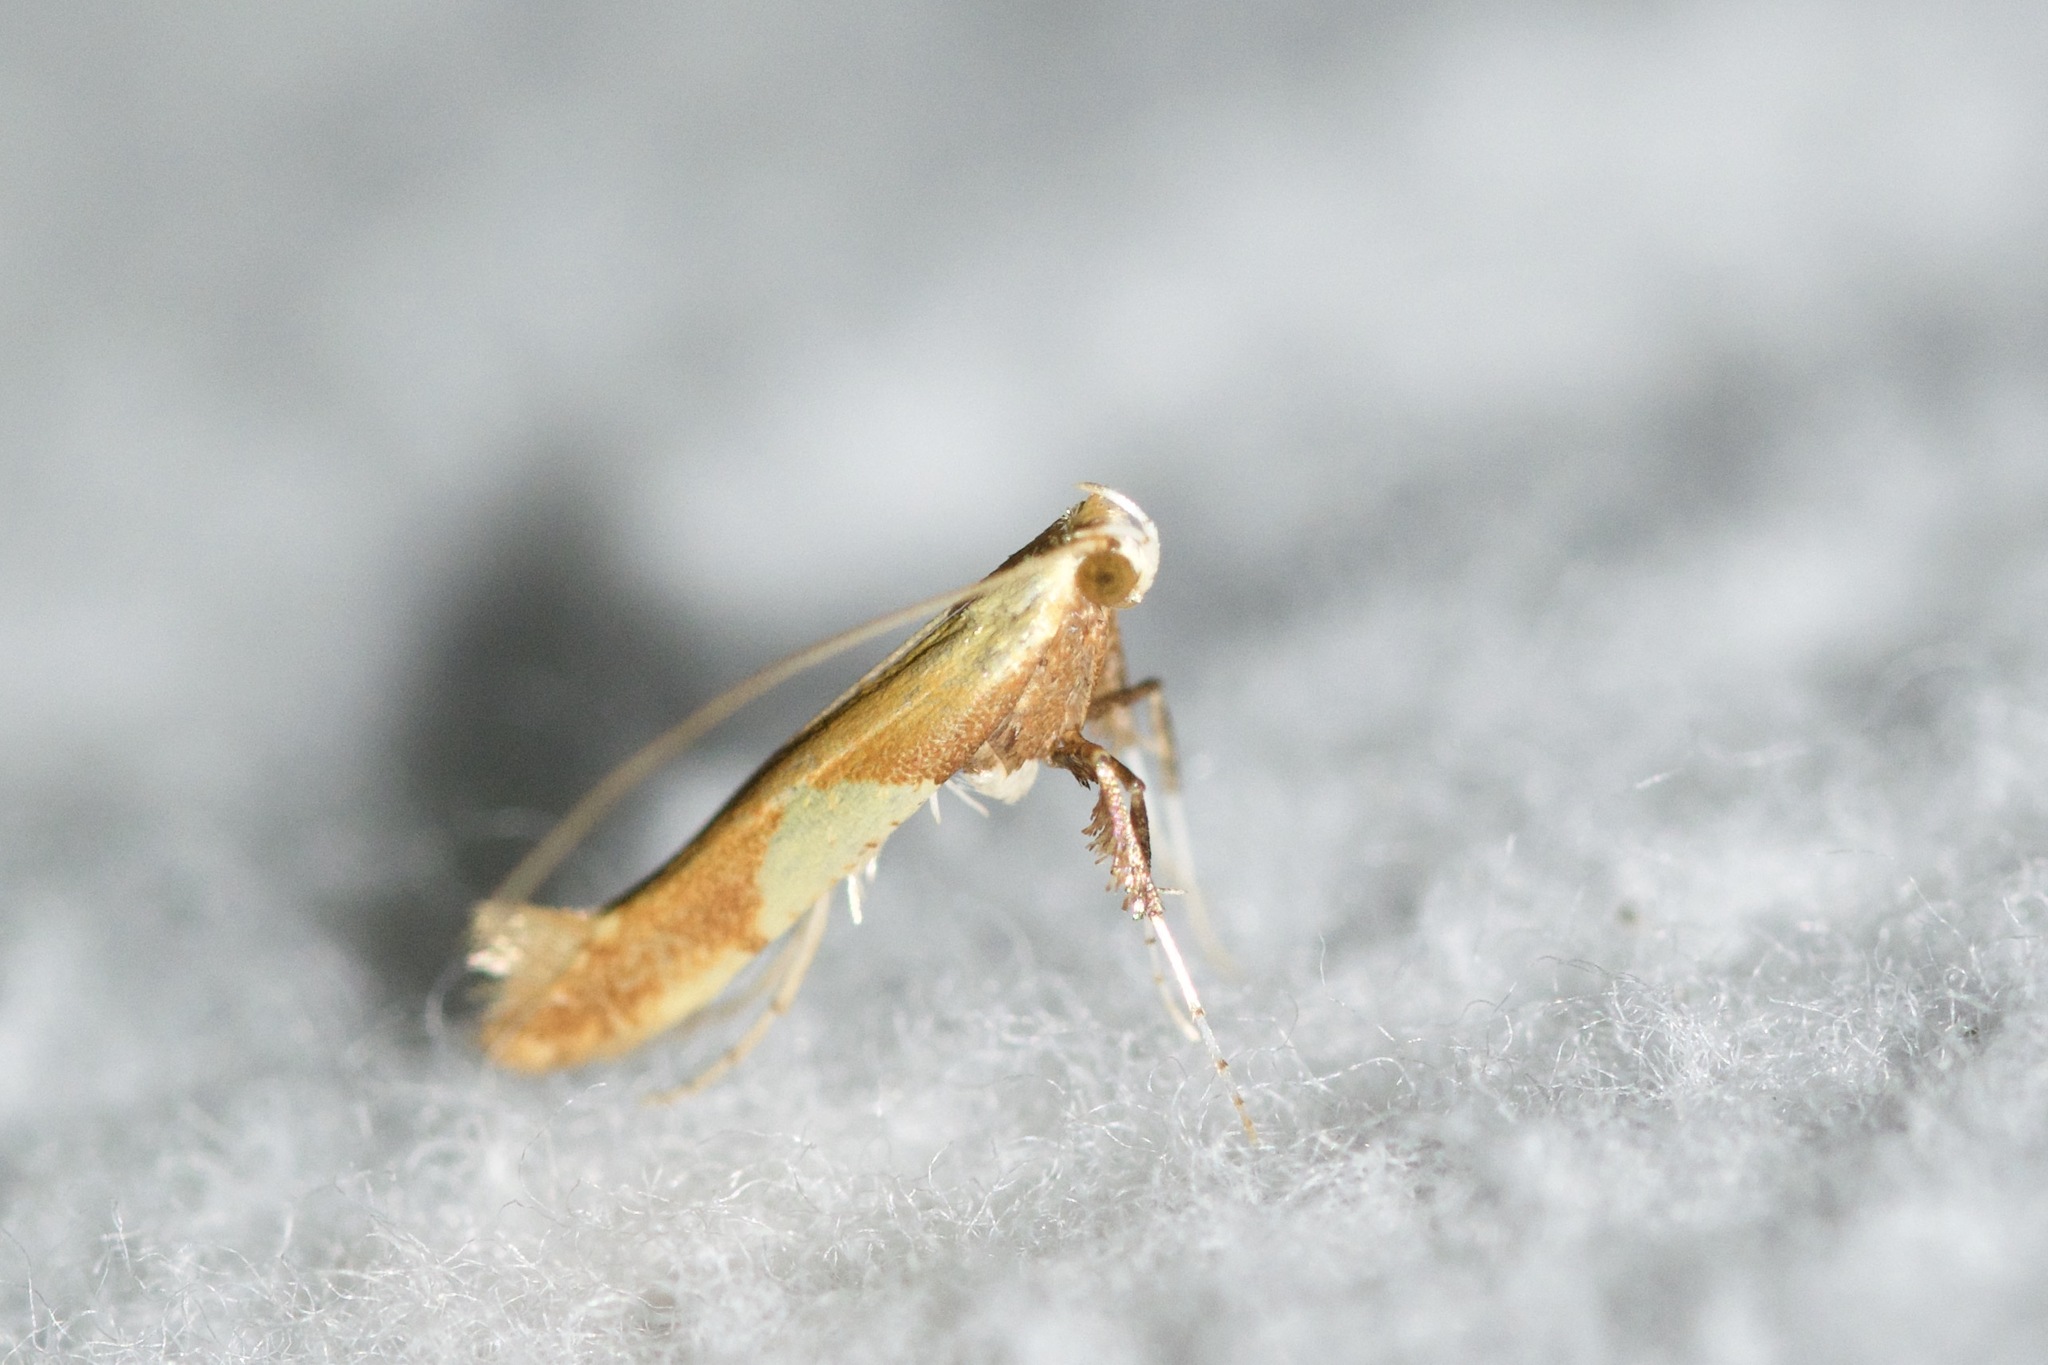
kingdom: Animalia
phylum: Arthropoda
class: Insecta
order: Lepidoptera
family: Gracillariidae
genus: Caloptilia
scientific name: Caloptilia bimaculatella
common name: Maple caloptilia moth
